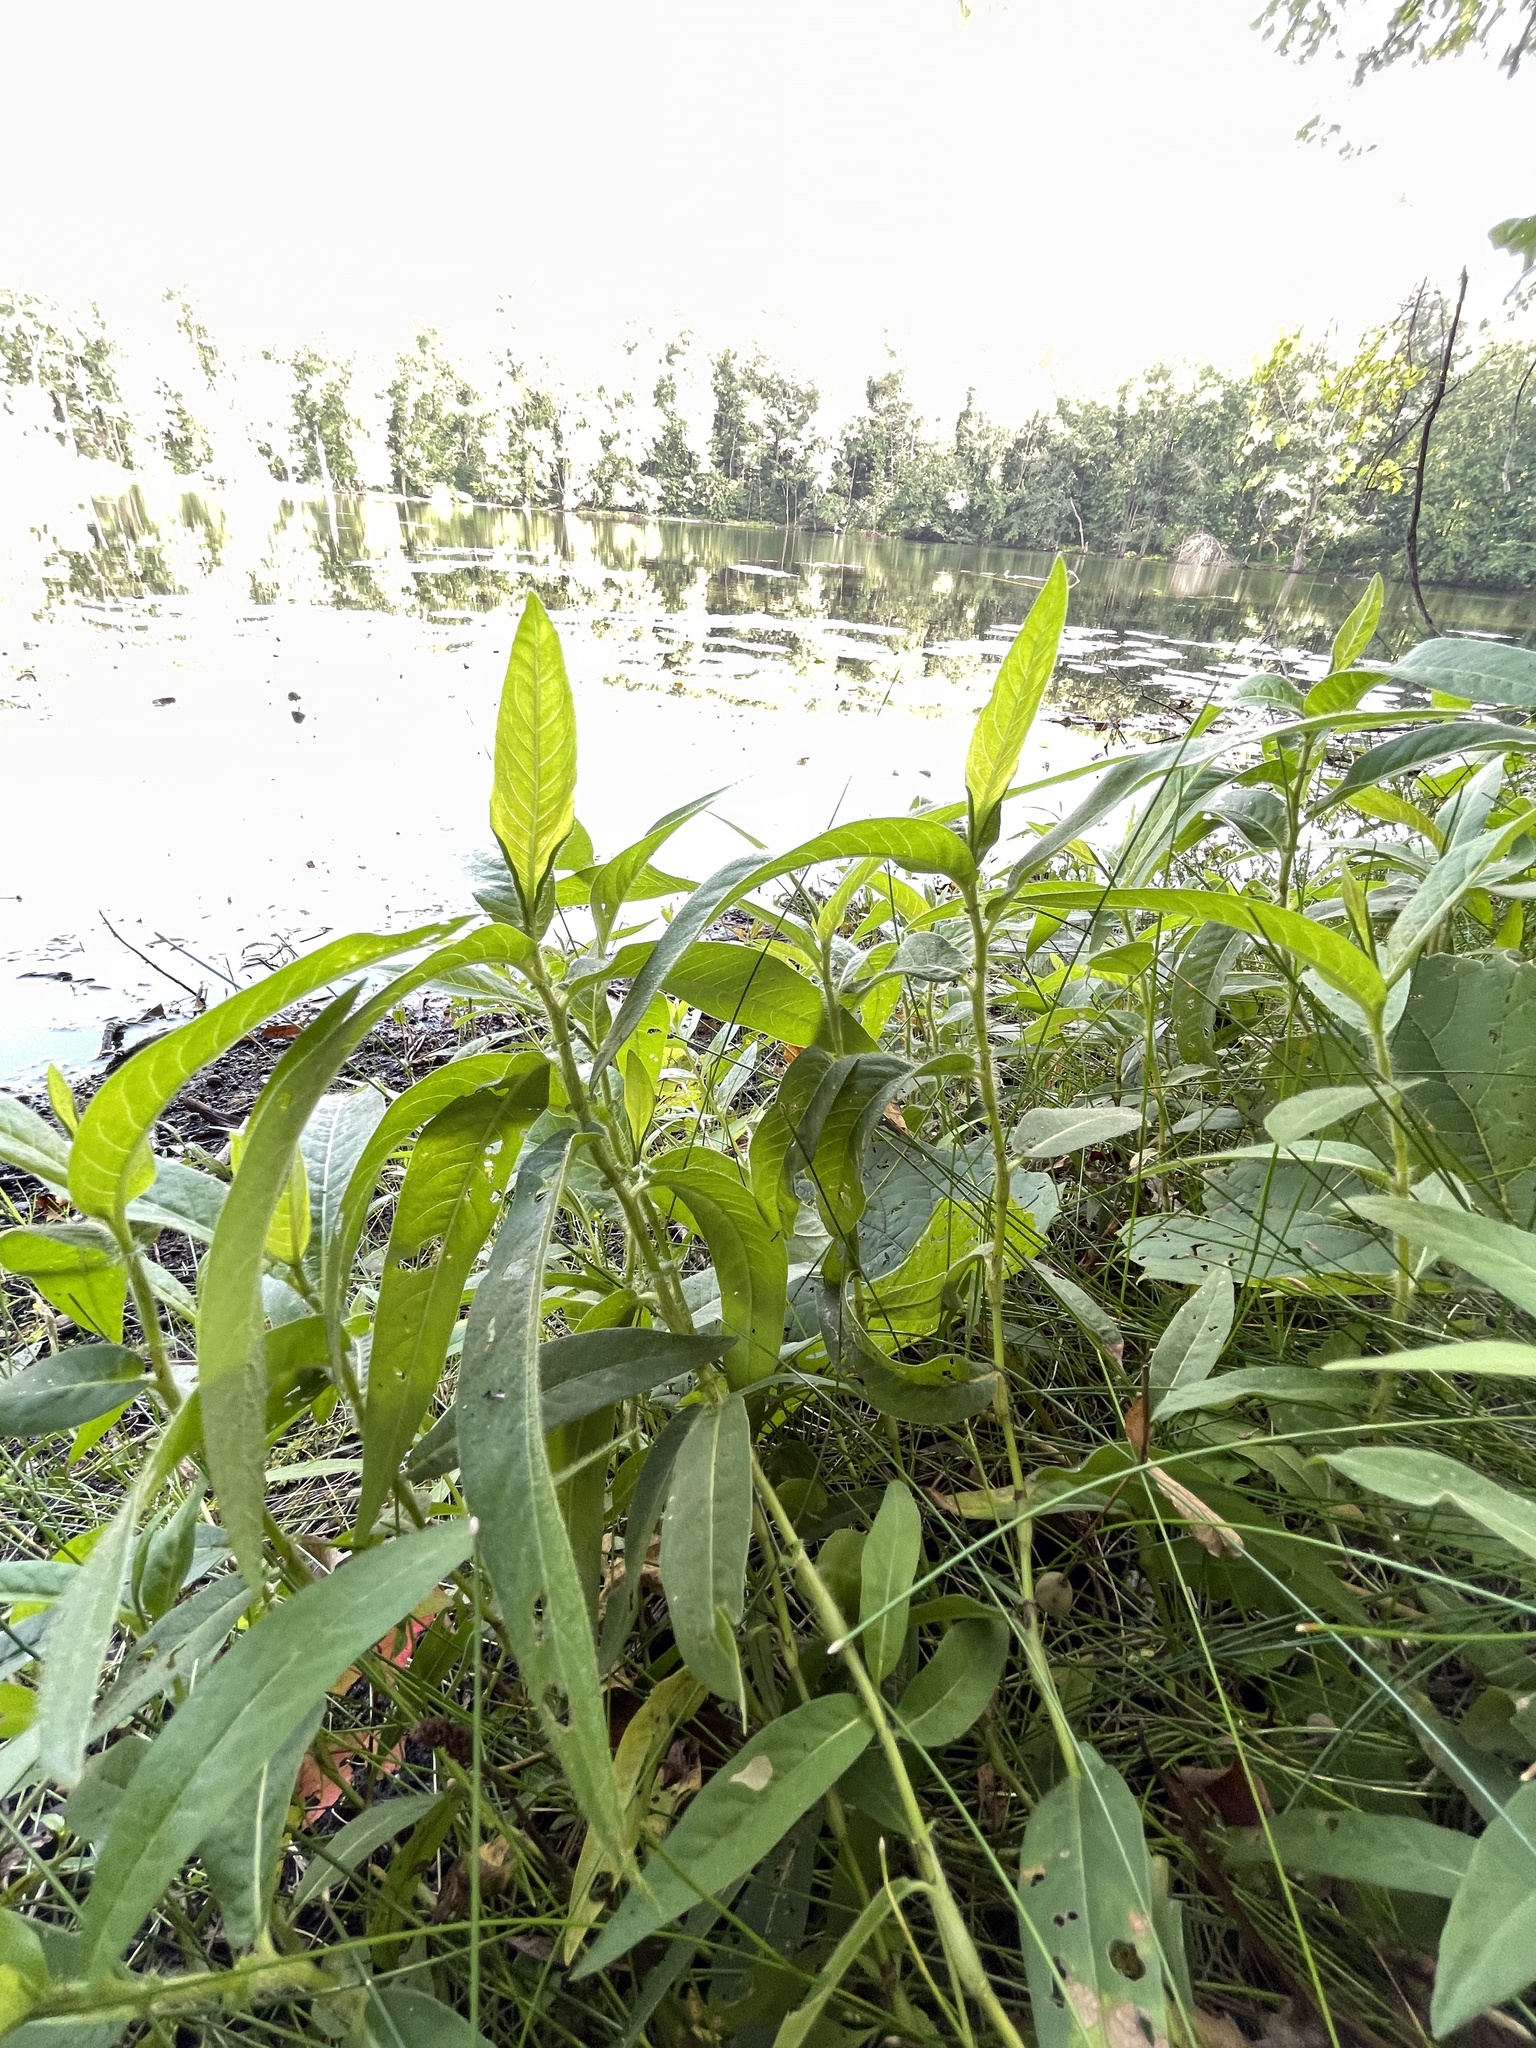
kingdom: Plantae
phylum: Tracheophyta
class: Magnoliopsida
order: Caryophyllales
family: Polygonaceae
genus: Persicaria
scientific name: Persicaria amphibia
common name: Amphibious bistort
